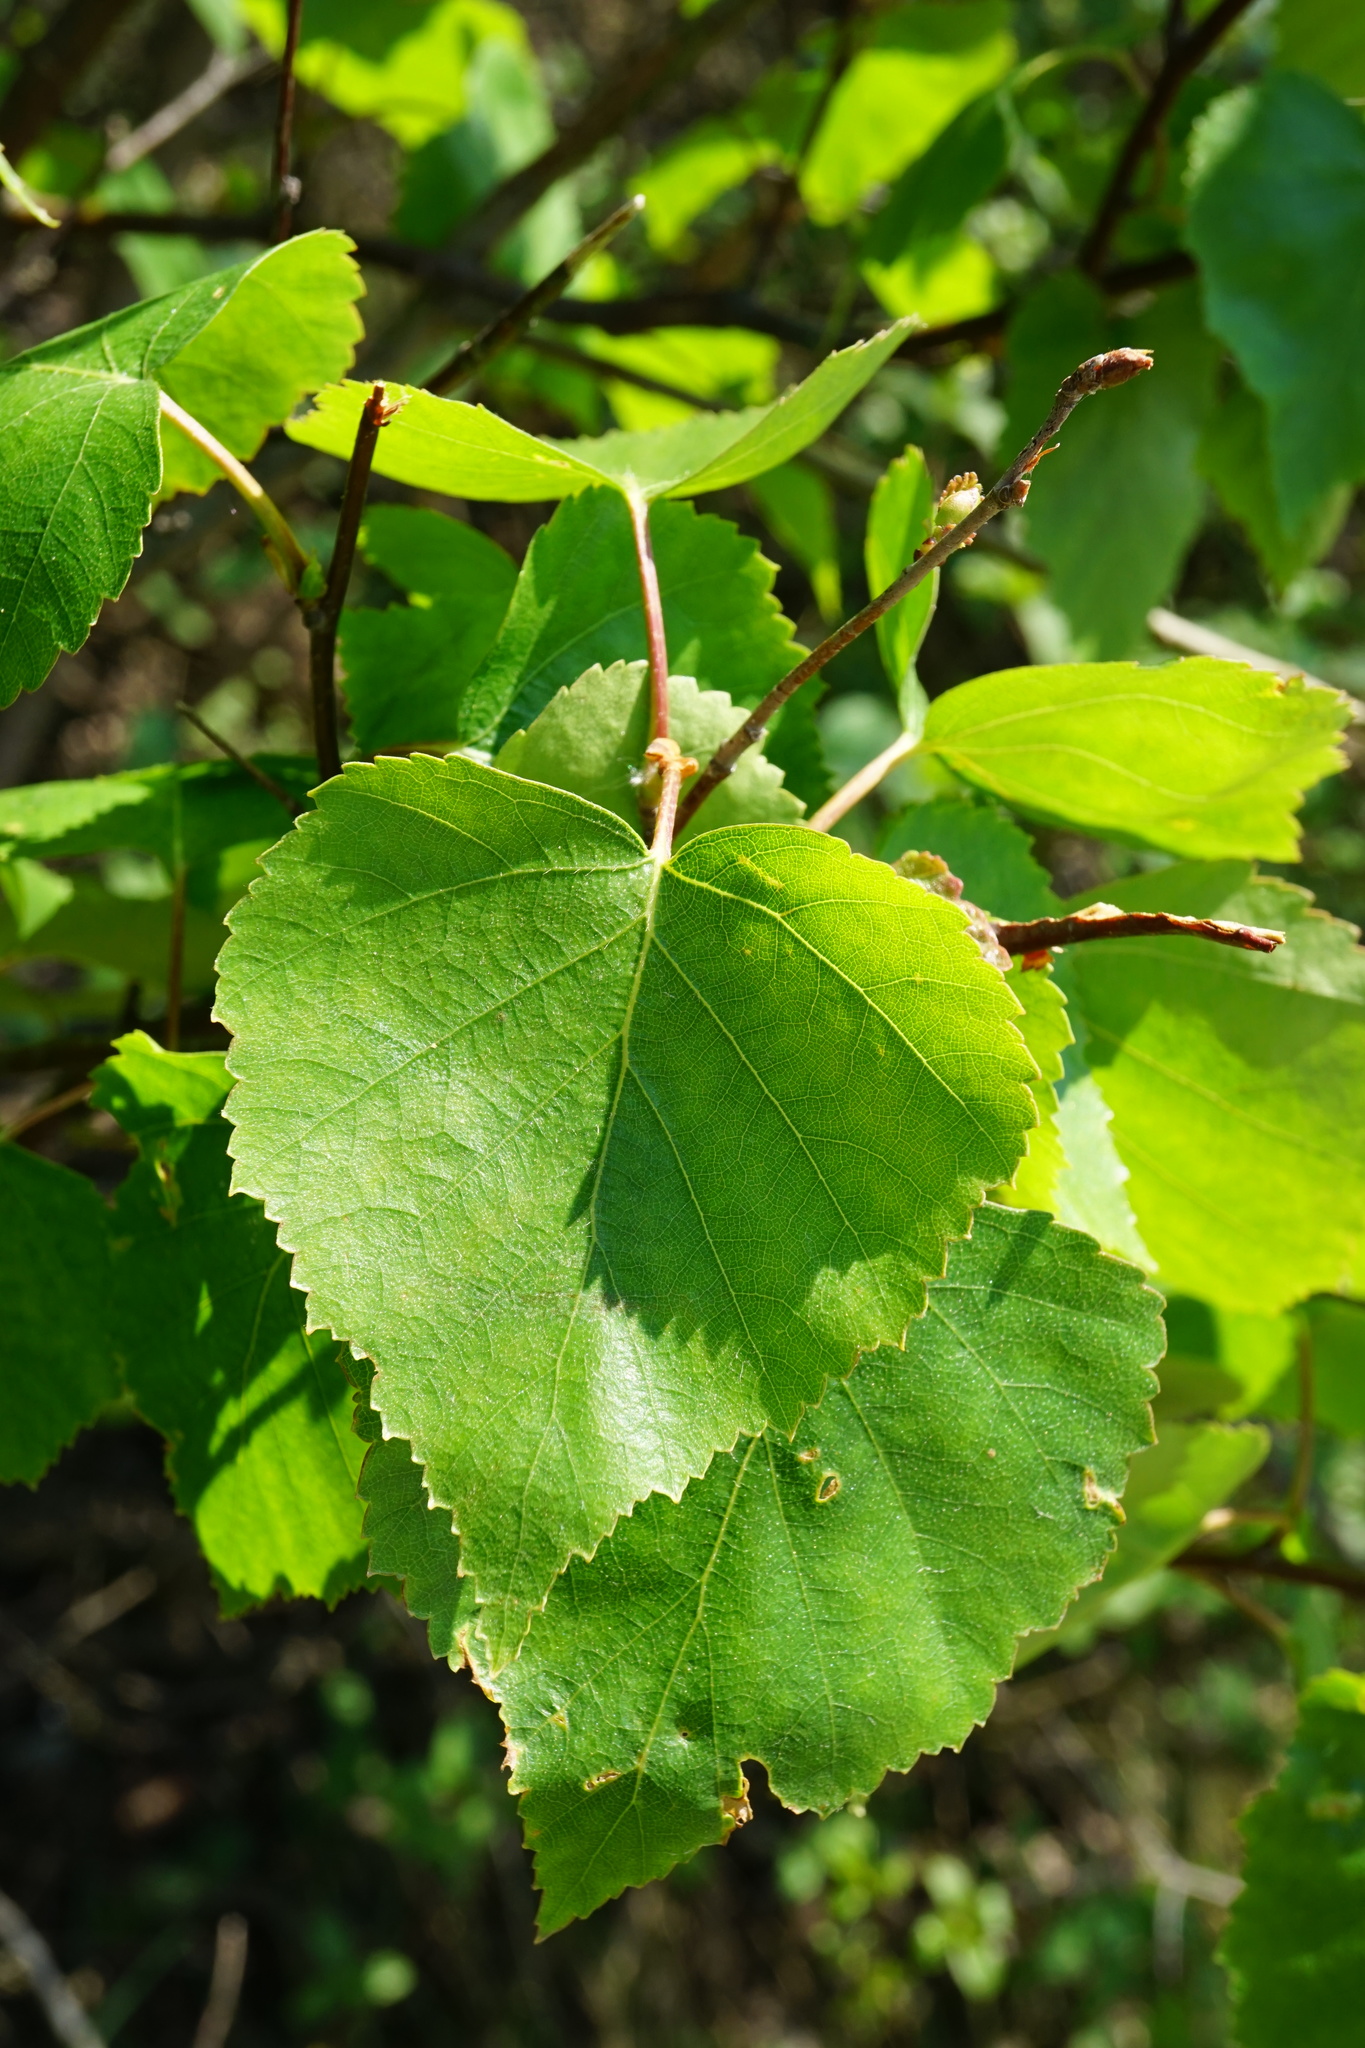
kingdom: Plantae
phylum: Tracheophyta
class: Magnoliopsida
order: Fagales
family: Betulaceae
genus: Betula
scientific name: Betula pendula
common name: Silver birch
